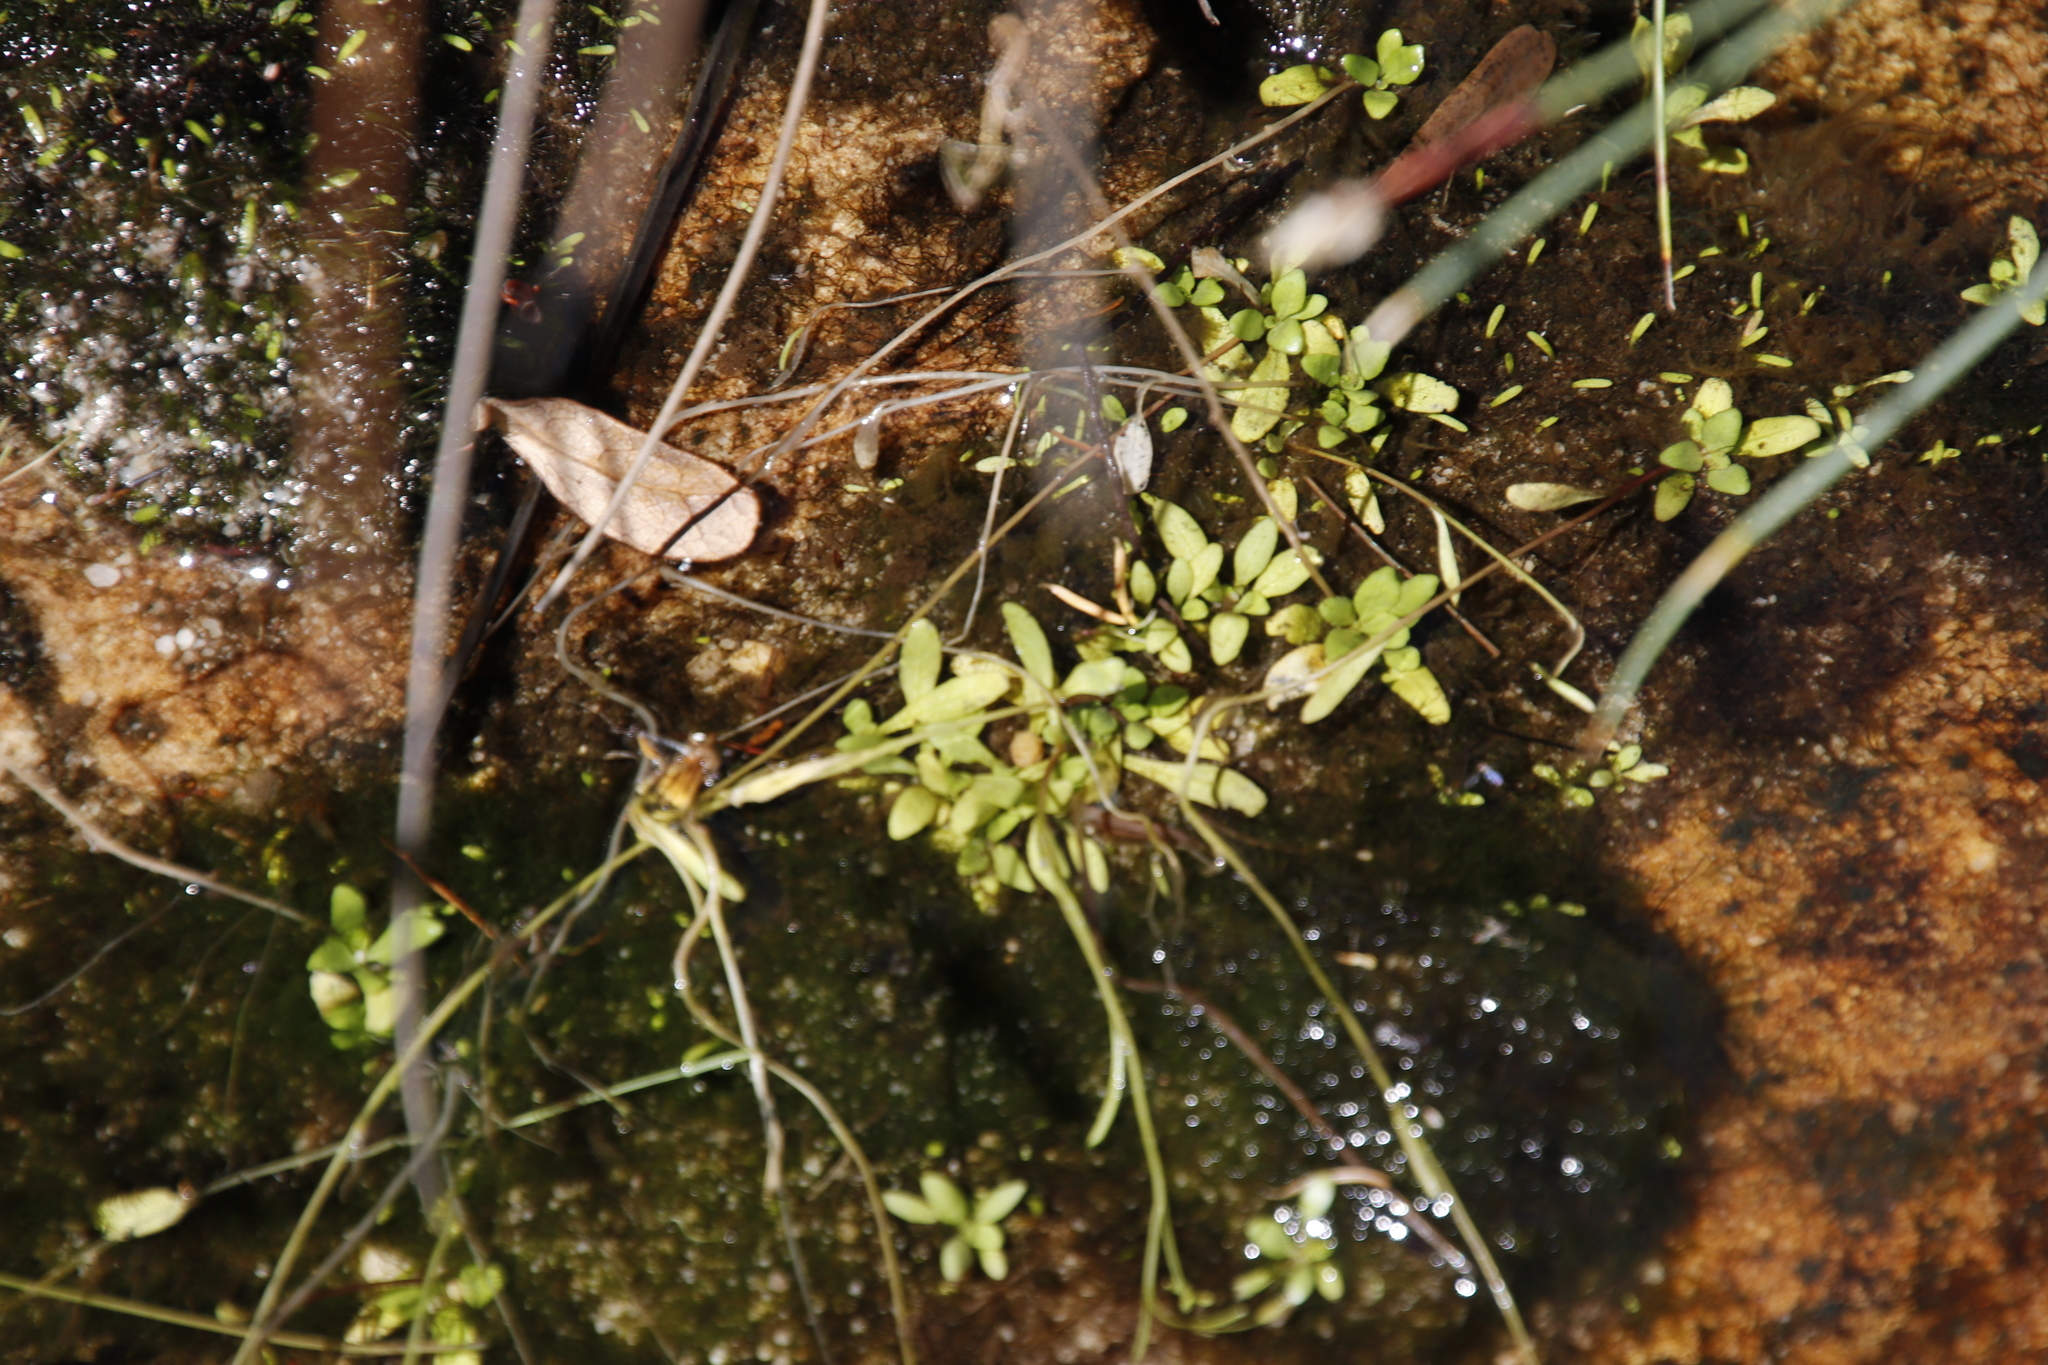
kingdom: Plantae
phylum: Tracheophyta
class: Magnoliopsida
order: Asterales
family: Campanulaceae
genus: Wimmerella
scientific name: Wimmerella arabidea
